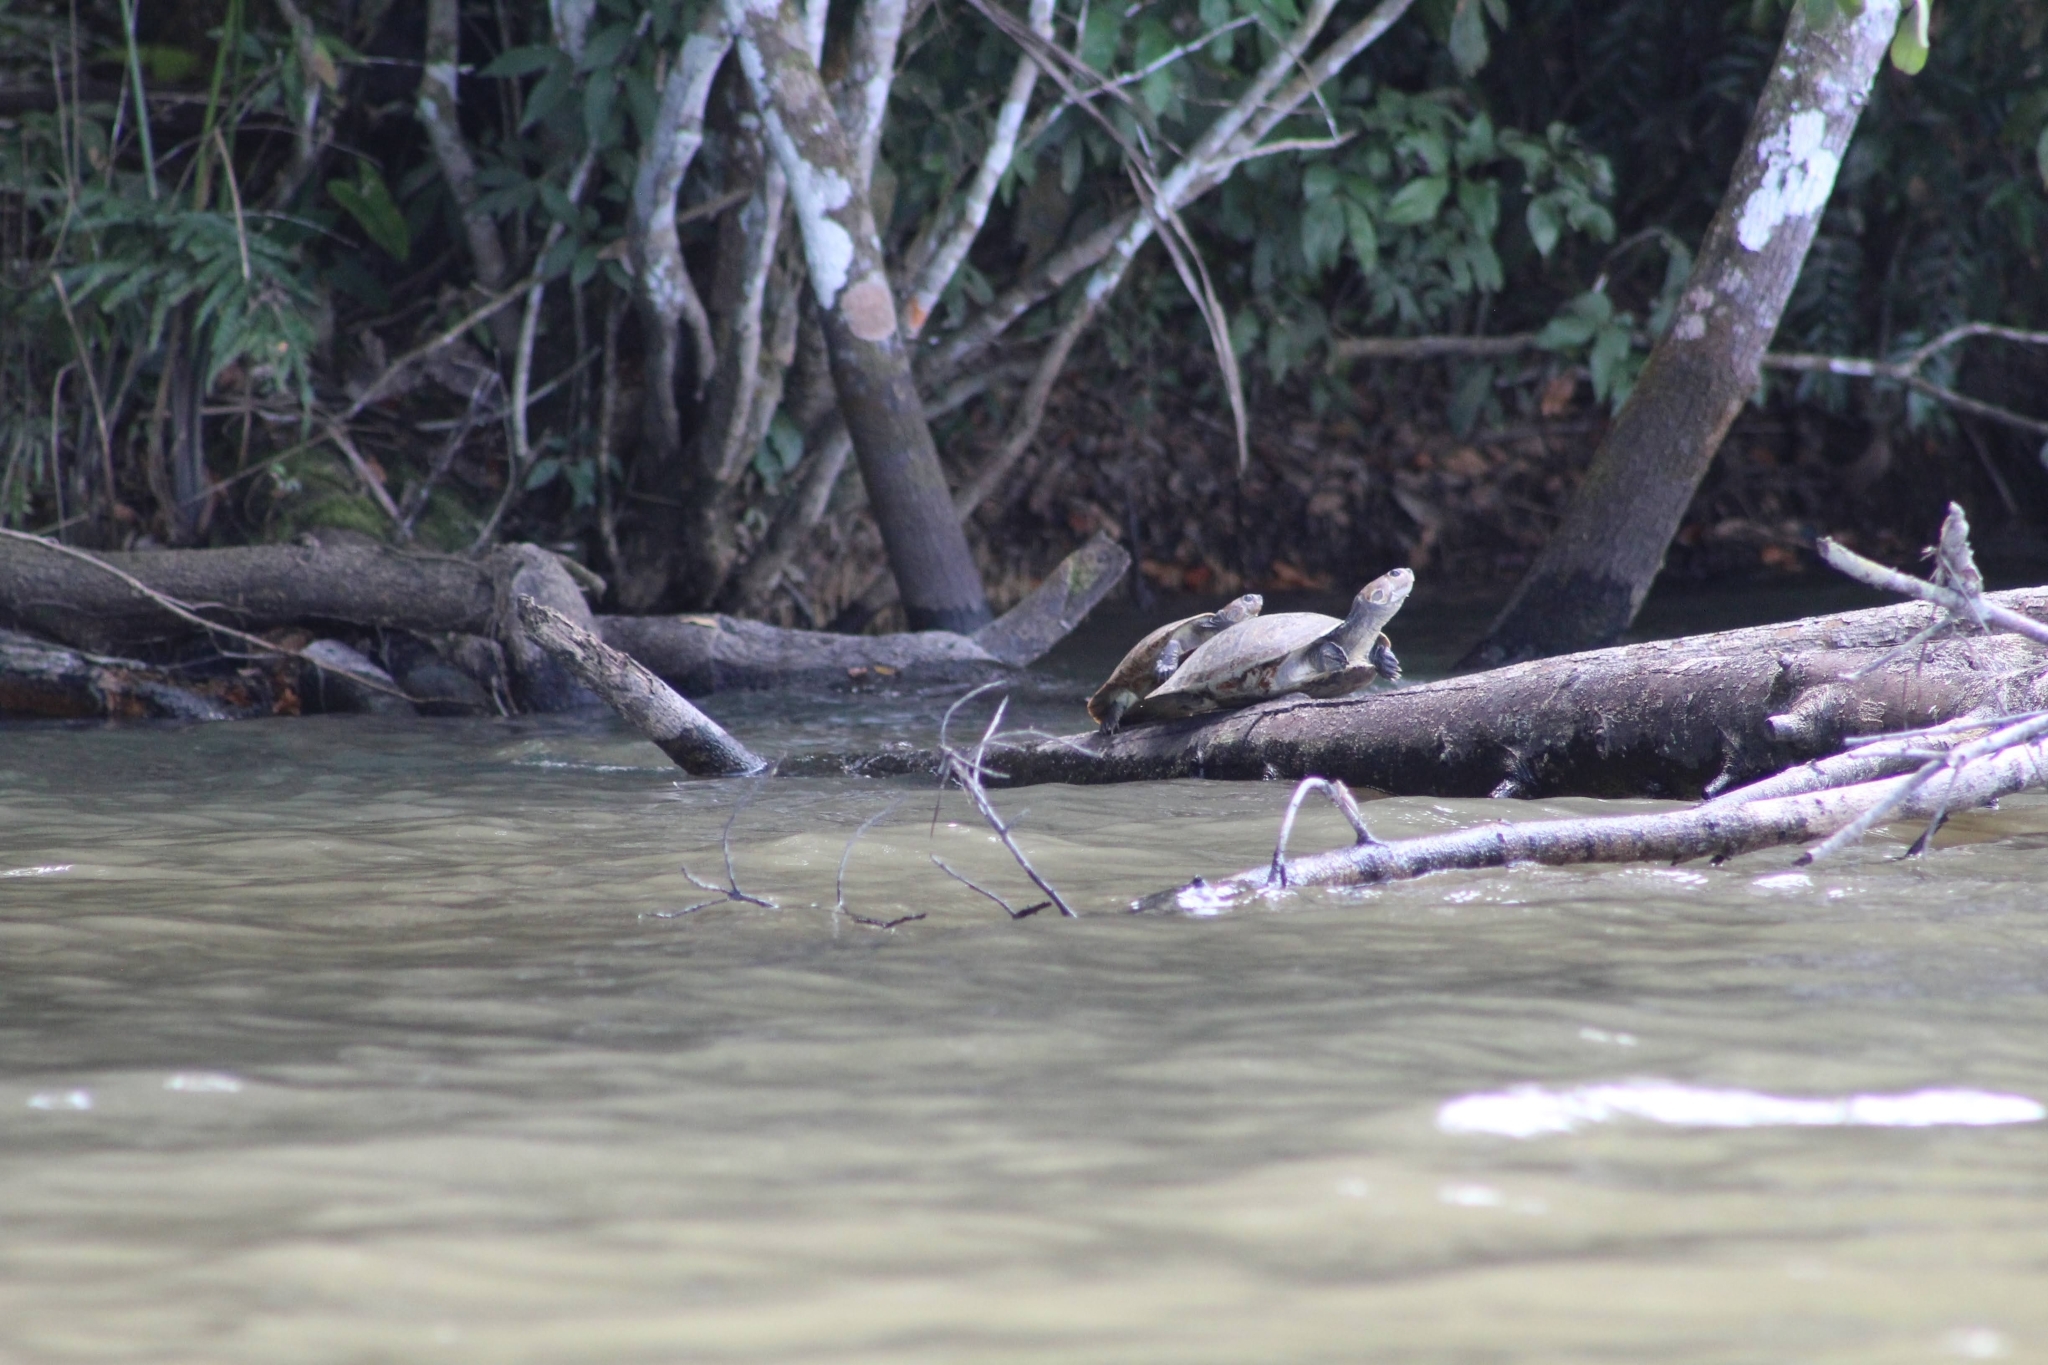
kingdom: Animalia
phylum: Chordata
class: Testudines
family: Podocnemididae
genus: Podocnemis
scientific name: Podocnemis vogli
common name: Savanna side-necked turtle
